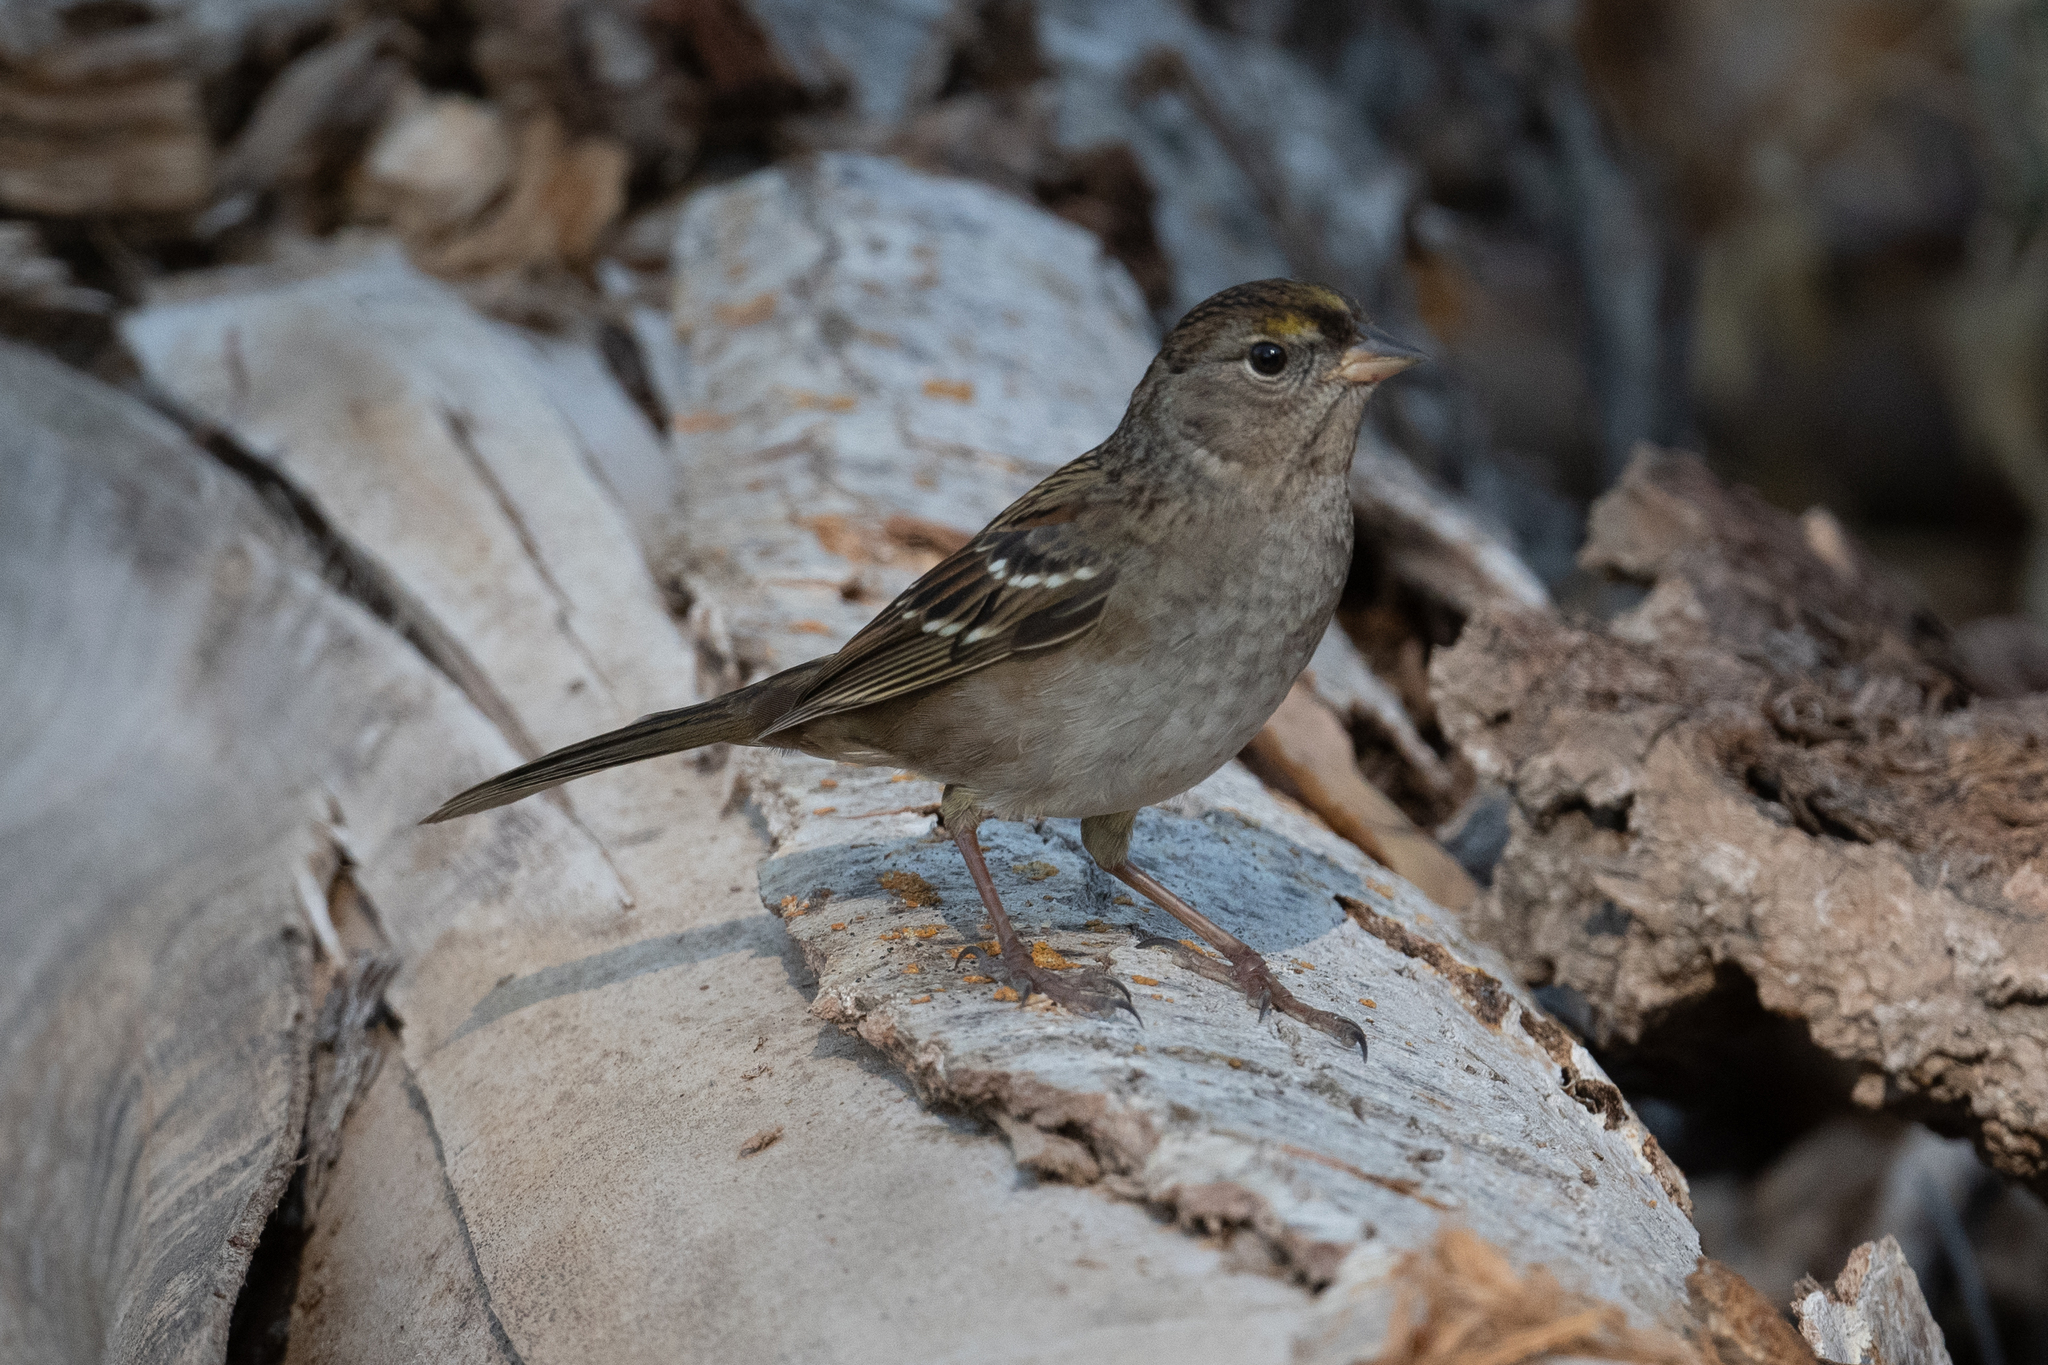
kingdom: Animalia
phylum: Chordata
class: Aves
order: Passeriformes
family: Passerellidae
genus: Zonotrichia
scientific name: Zonotrichia atricapilla
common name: Golden-crowned sparrow
